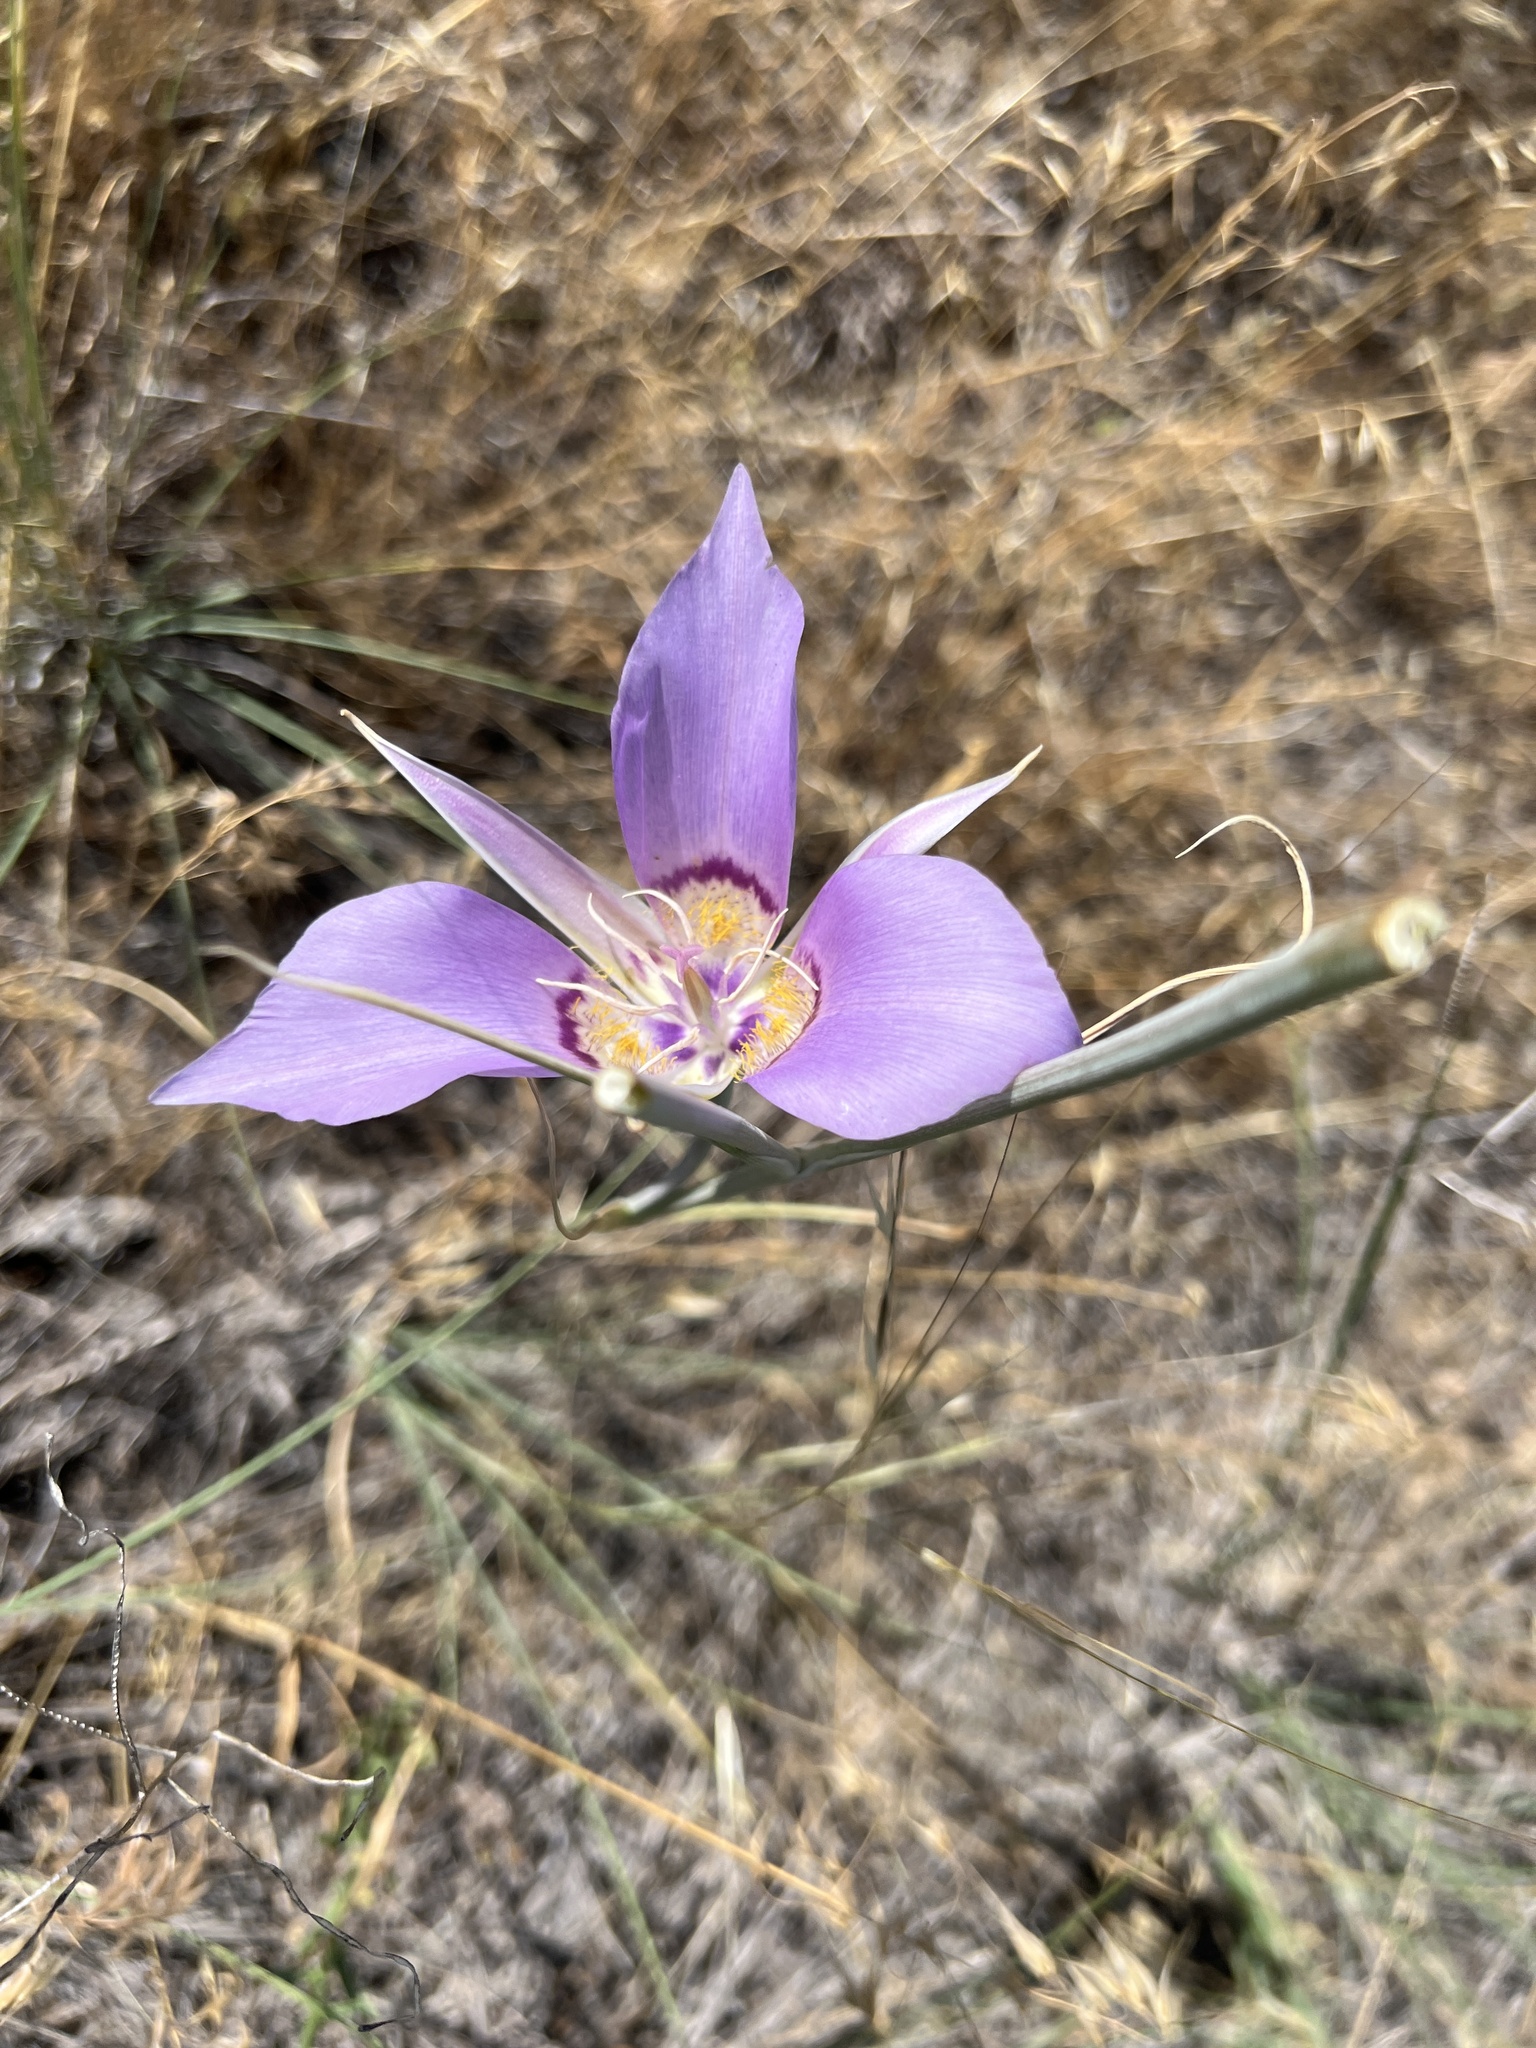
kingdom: Plantae
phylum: Tracheophyta
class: Liliopsida
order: Liliales
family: Liliaceae
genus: Calochortus
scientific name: Calochortus macrocarpus
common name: Green-band mariposa lily
